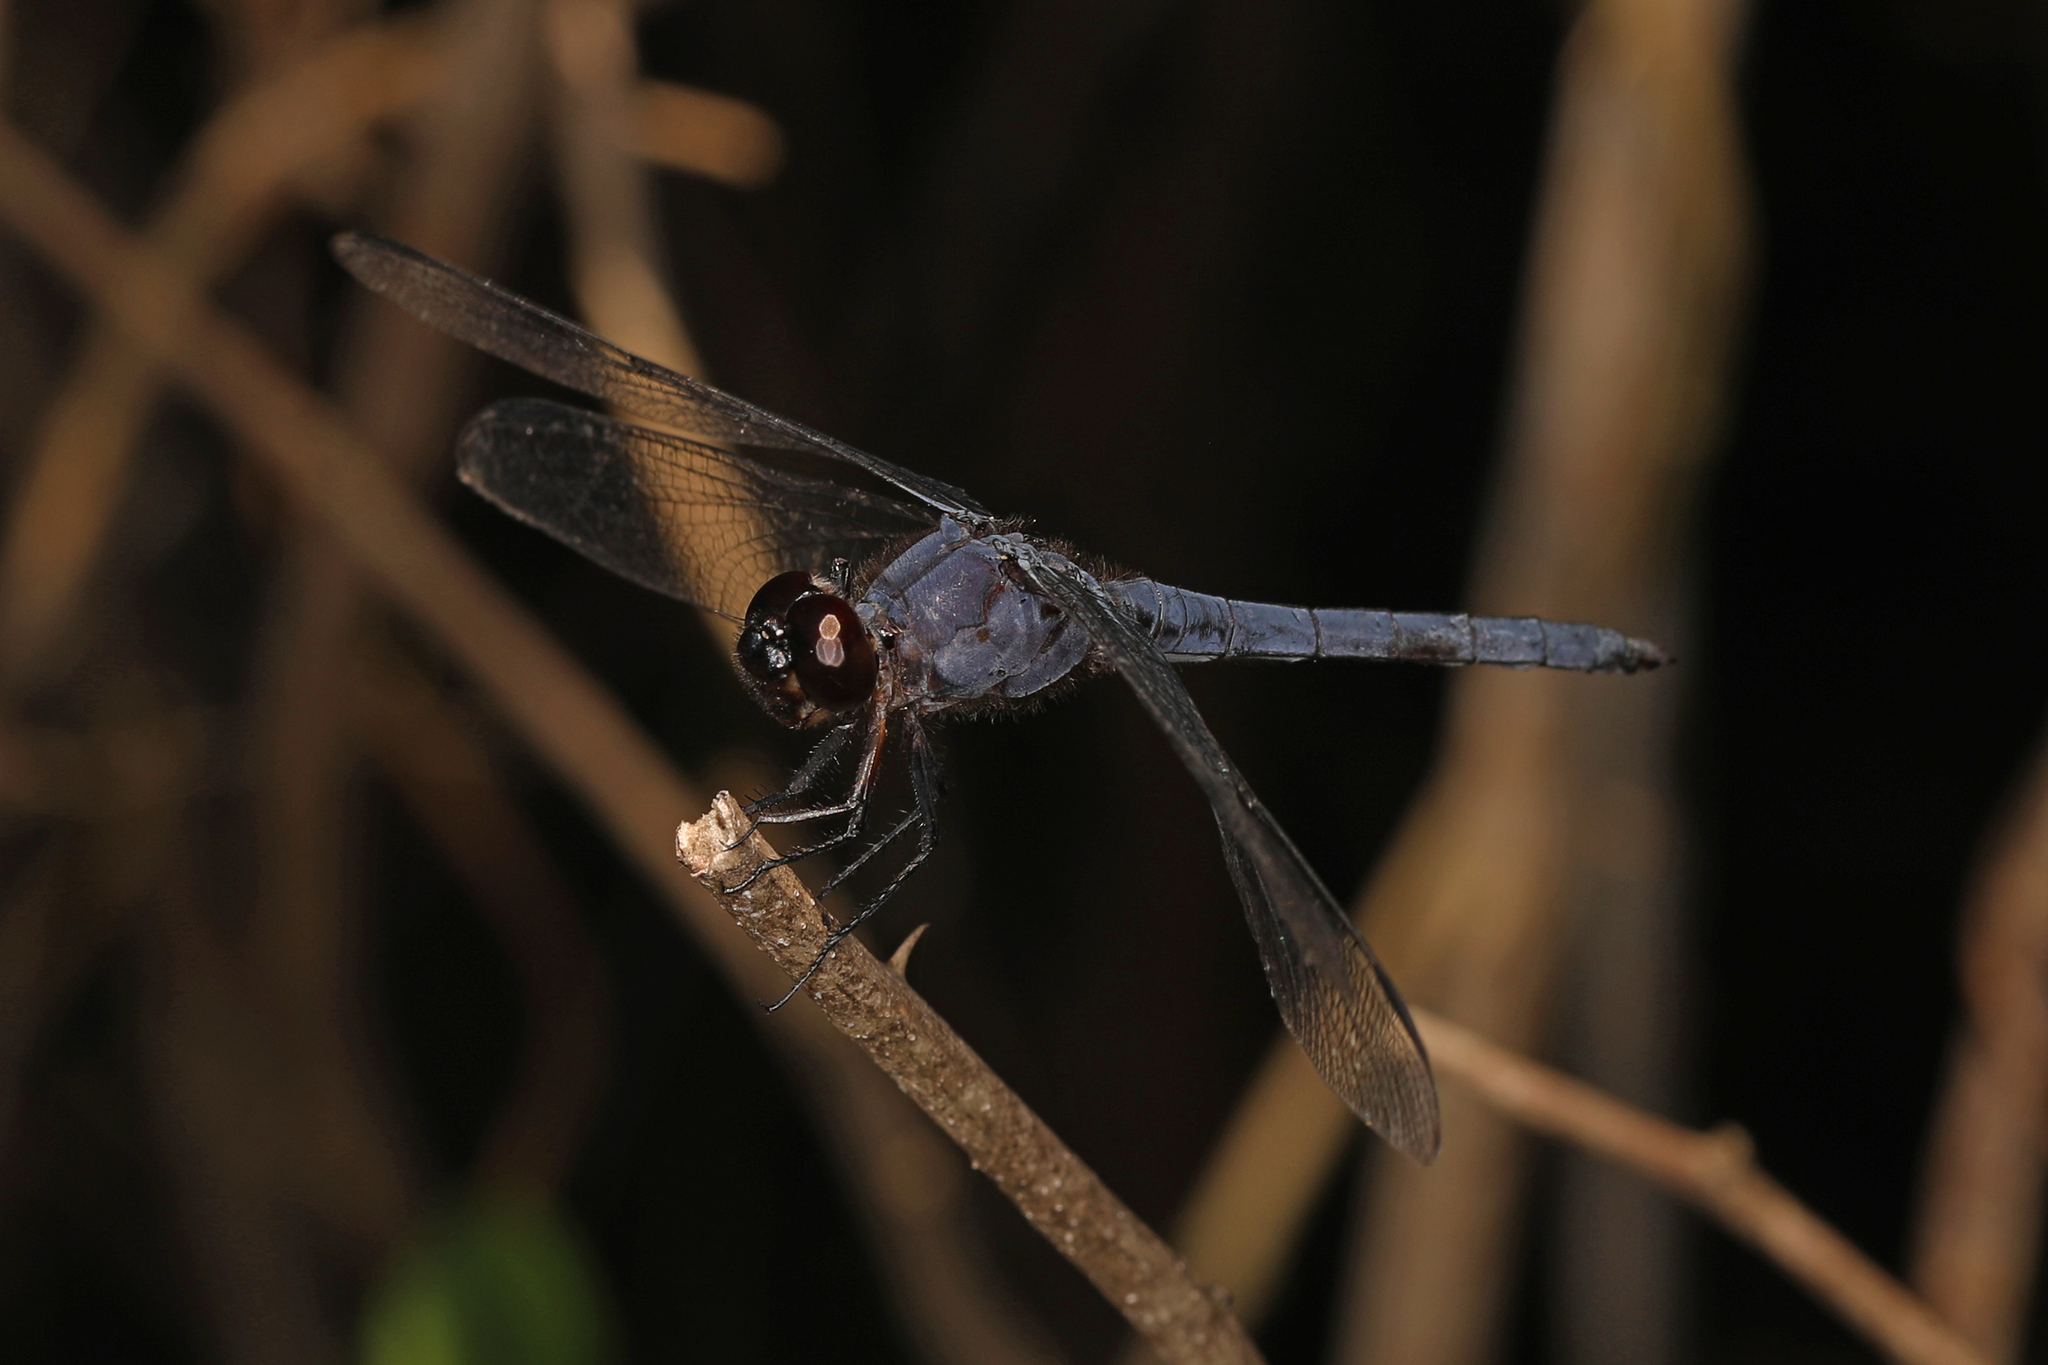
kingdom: Animalia
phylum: Arthropoda
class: Insecta
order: Odonata
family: Libellulidae
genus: Libellula
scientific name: Libellula incesta
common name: Slaty skimmer
